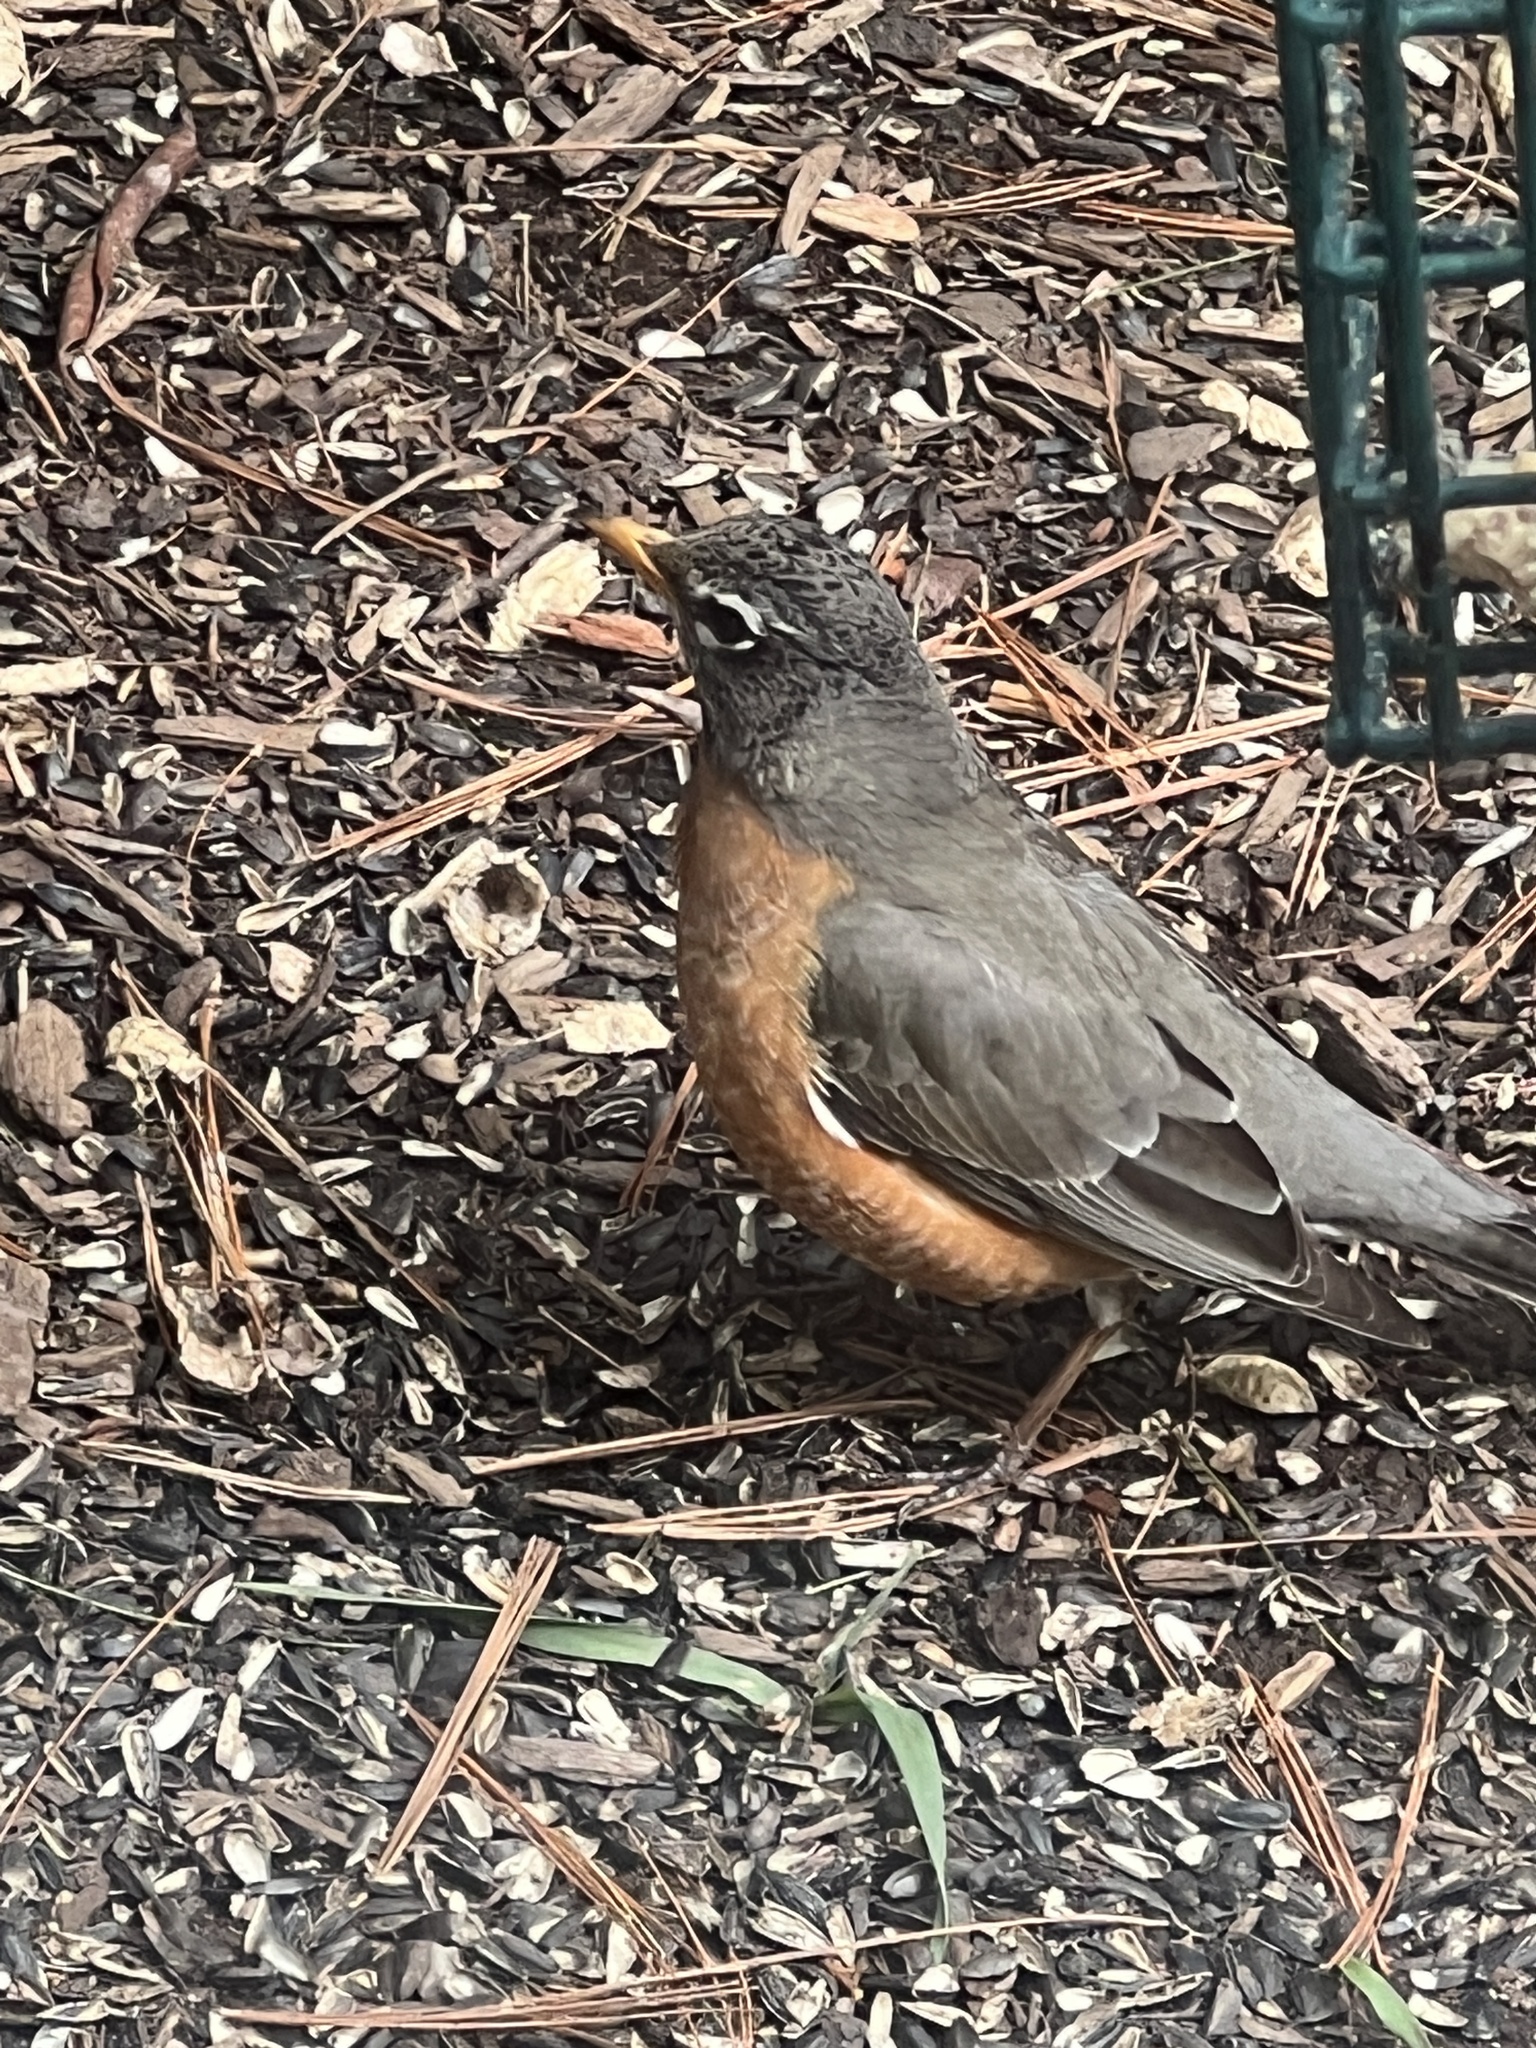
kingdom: Animalia
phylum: Chordata
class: Aves
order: Passeriformes
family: Turdidae
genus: Turdus
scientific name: Turdus migratorius
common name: American robin
